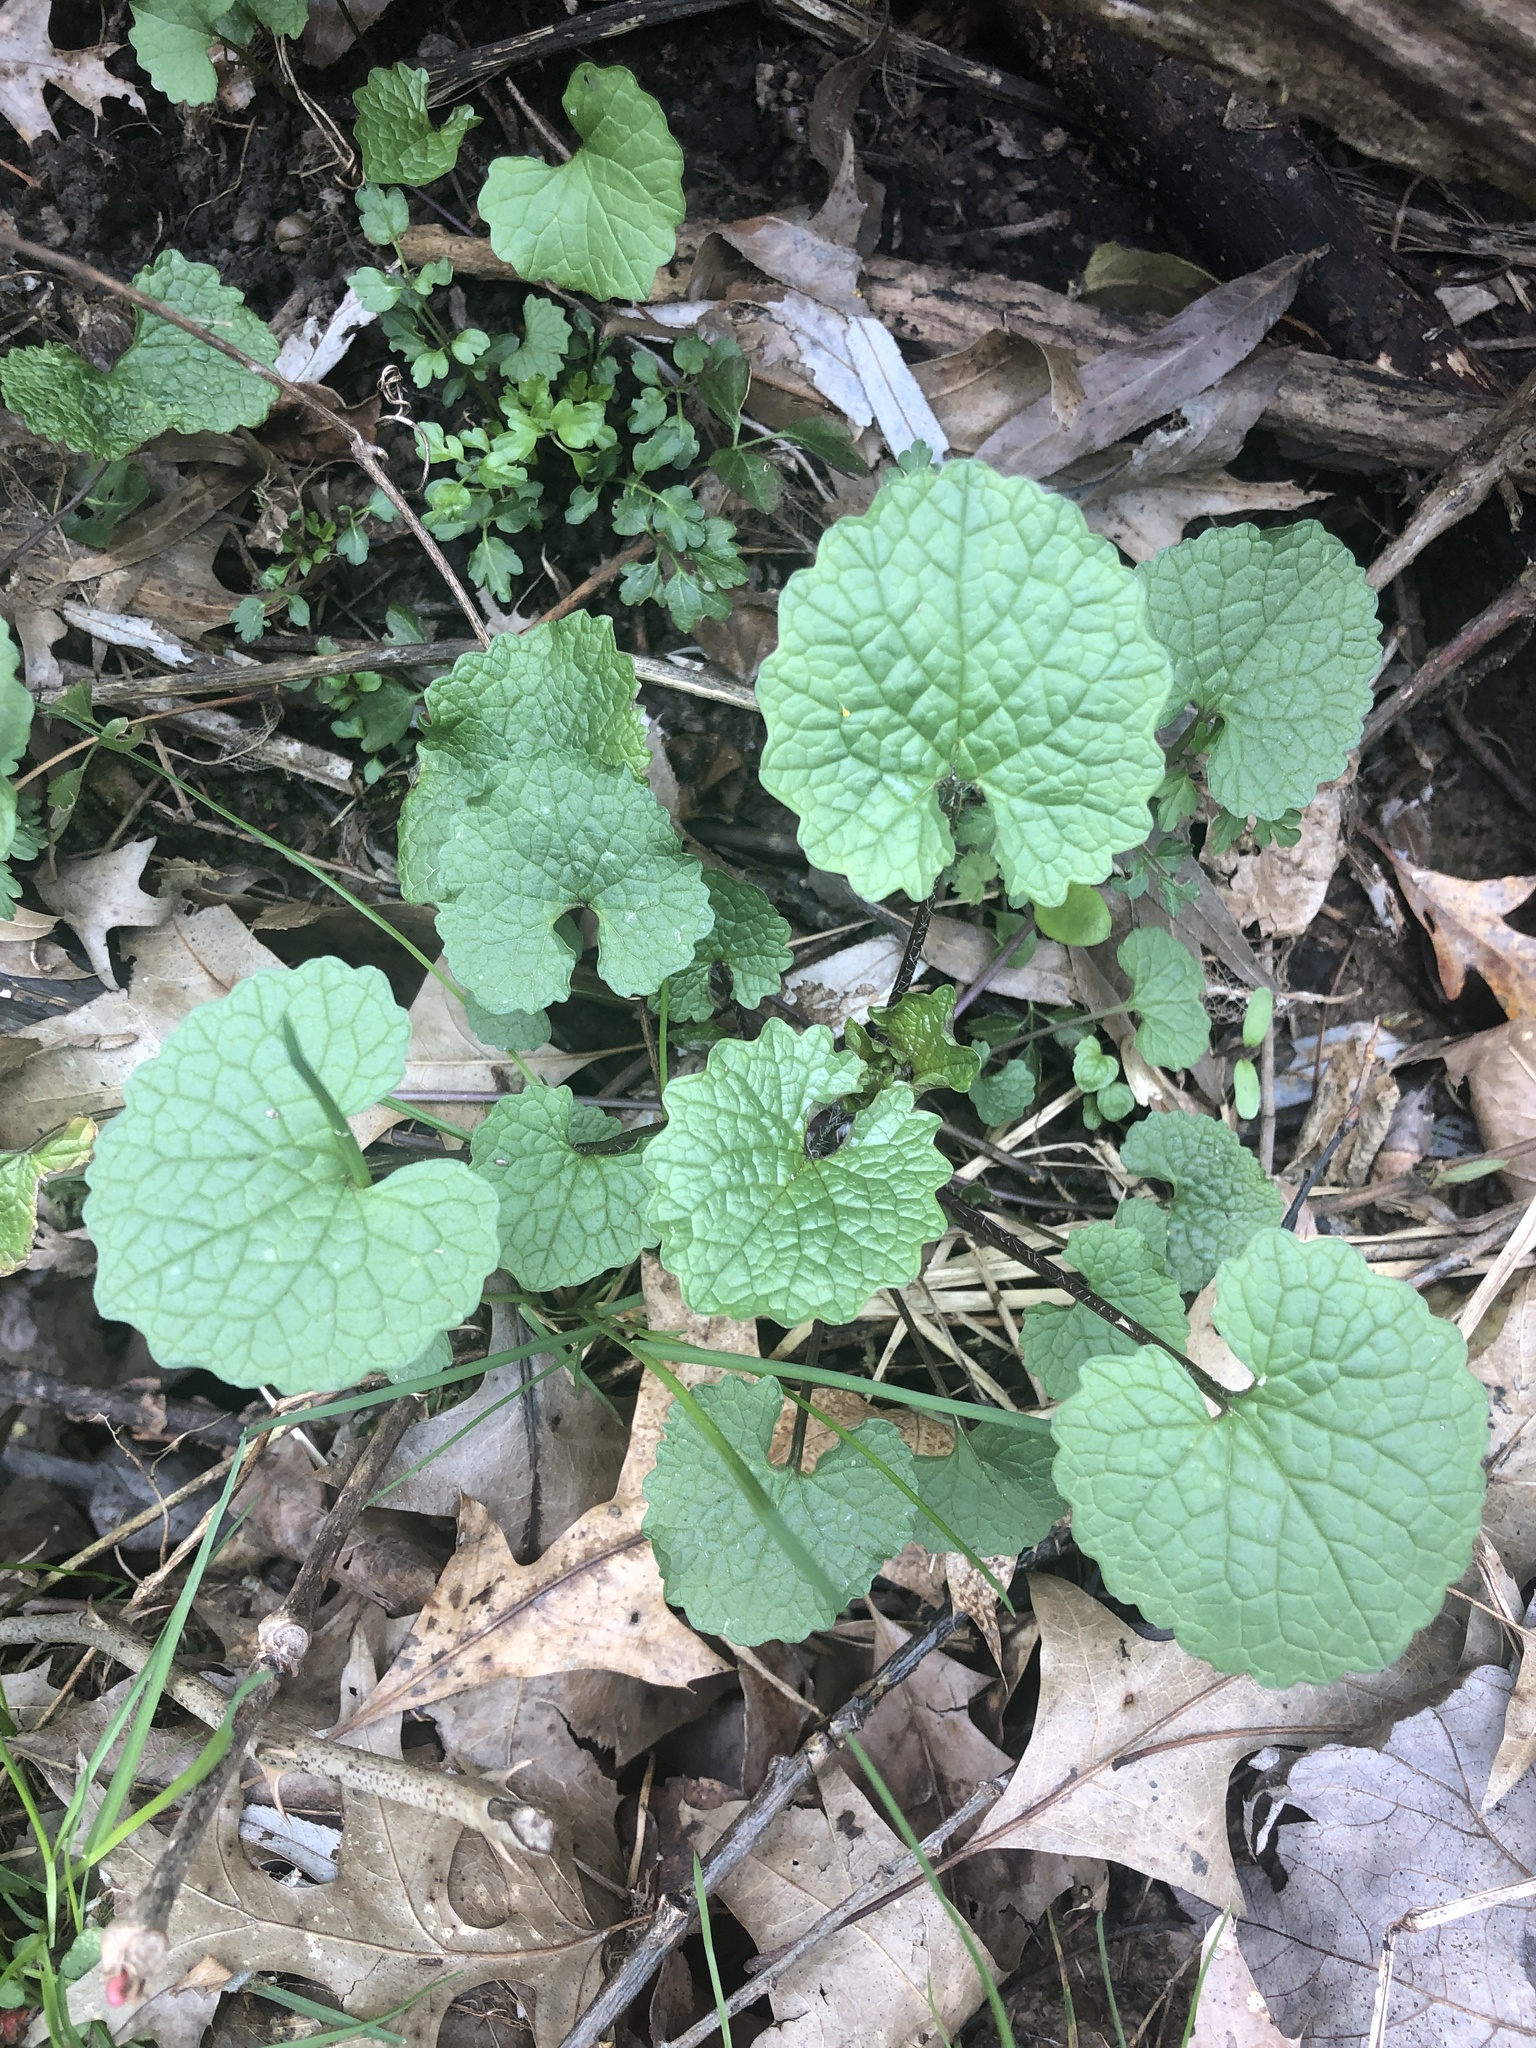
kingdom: Plantae
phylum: Tracheophyta
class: Magnoliopsida
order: Brassicales
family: Brassicaceae
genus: Alliaria
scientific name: Alliaria petiolata
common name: Garlic mustard
